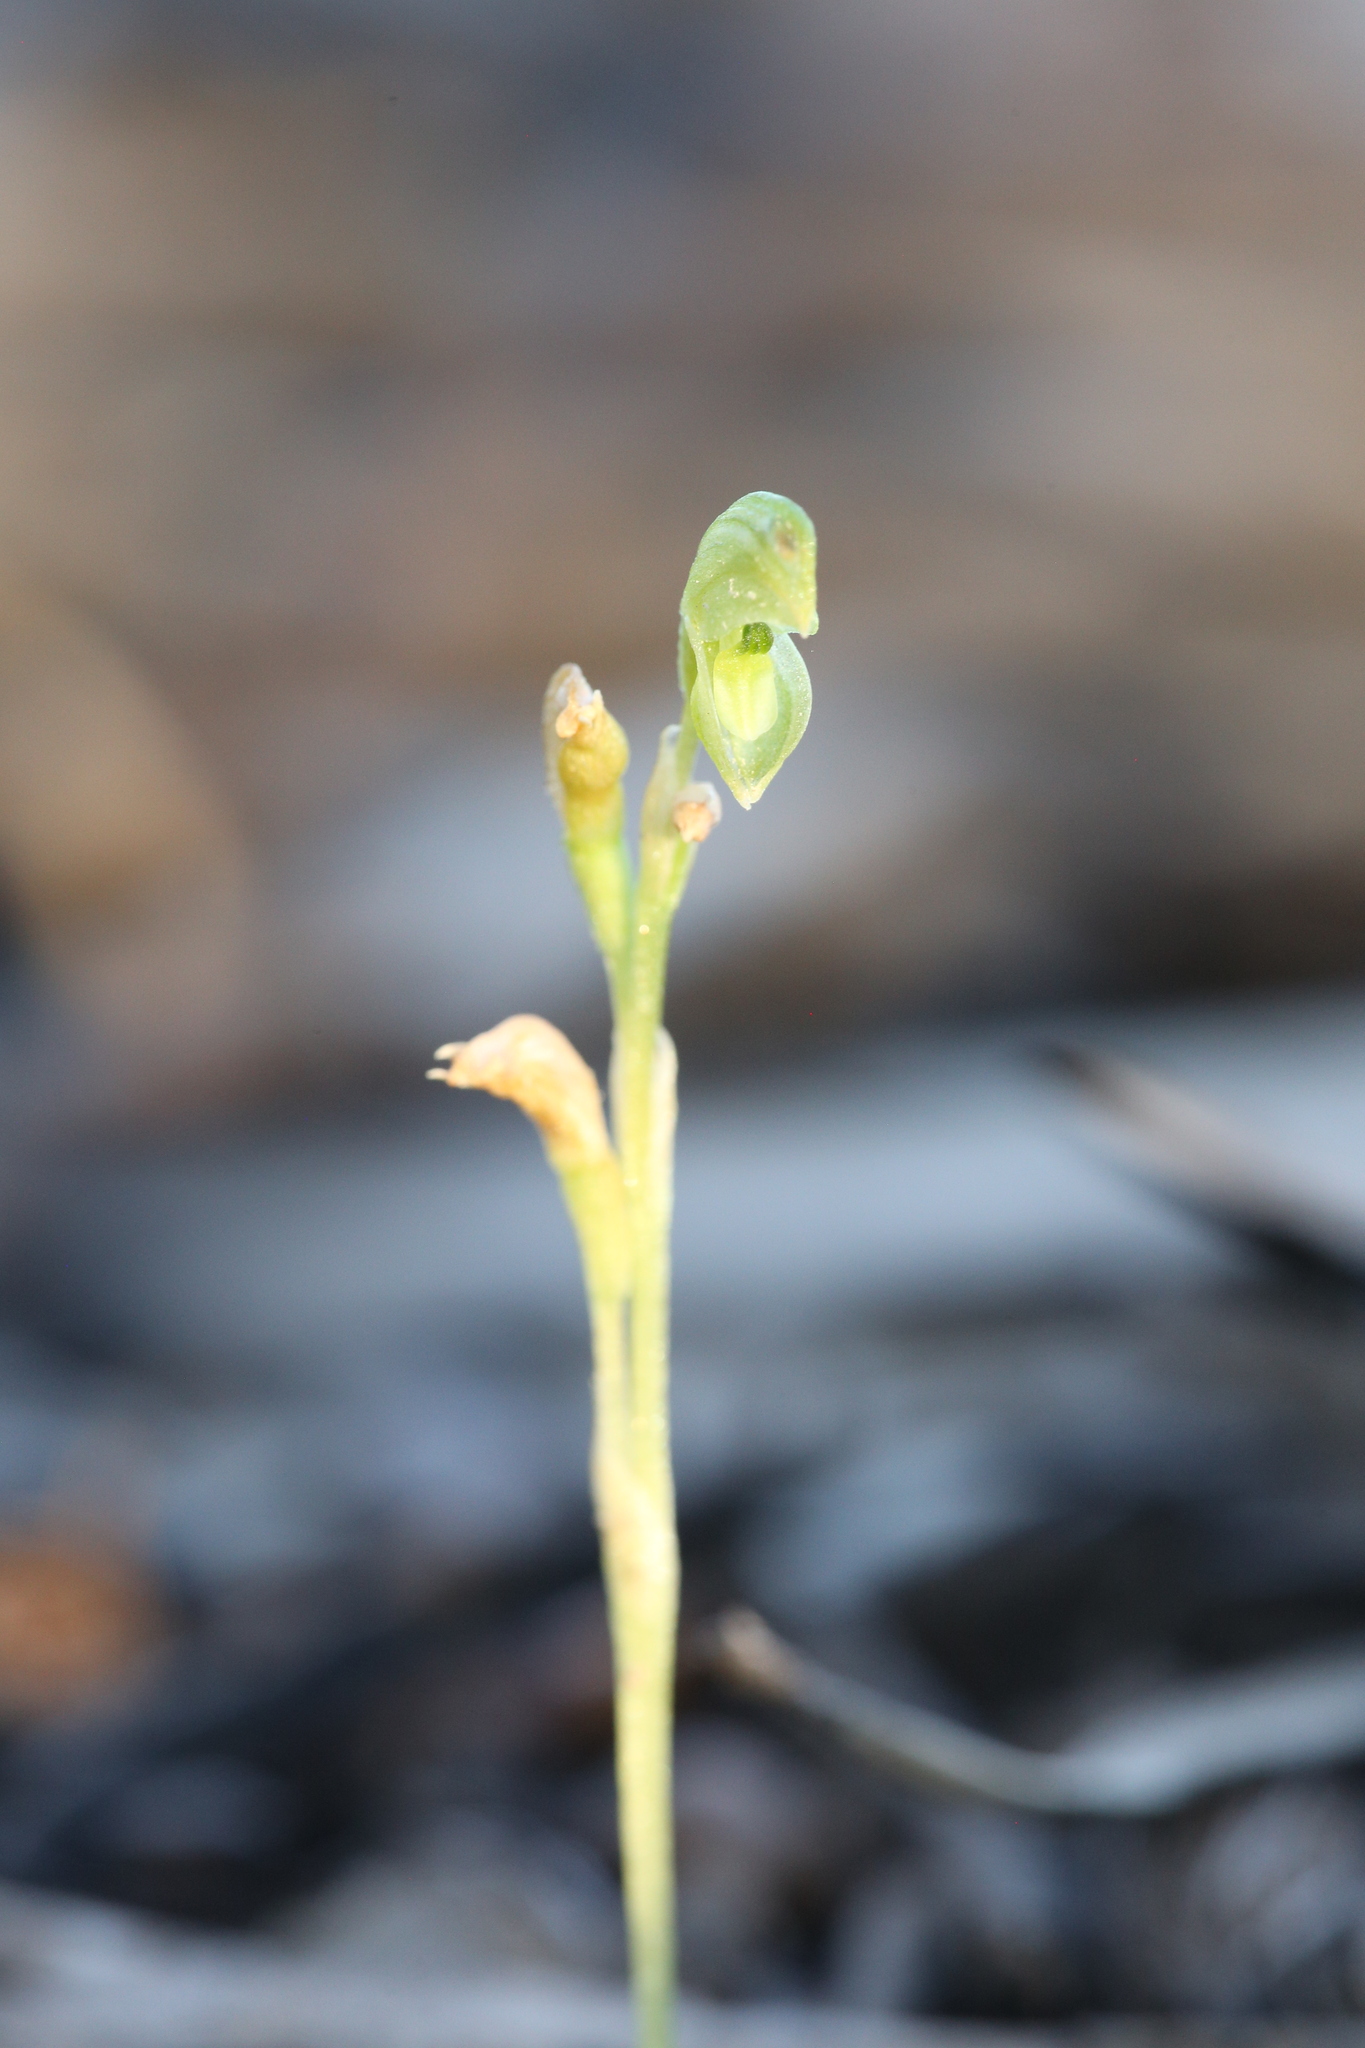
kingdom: Plantae
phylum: Tracheophyta
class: Liliopsida
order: Asparagales
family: Orchidaceae
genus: Pterostylis
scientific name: Pterostylis mutica
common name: Midget greenhood
